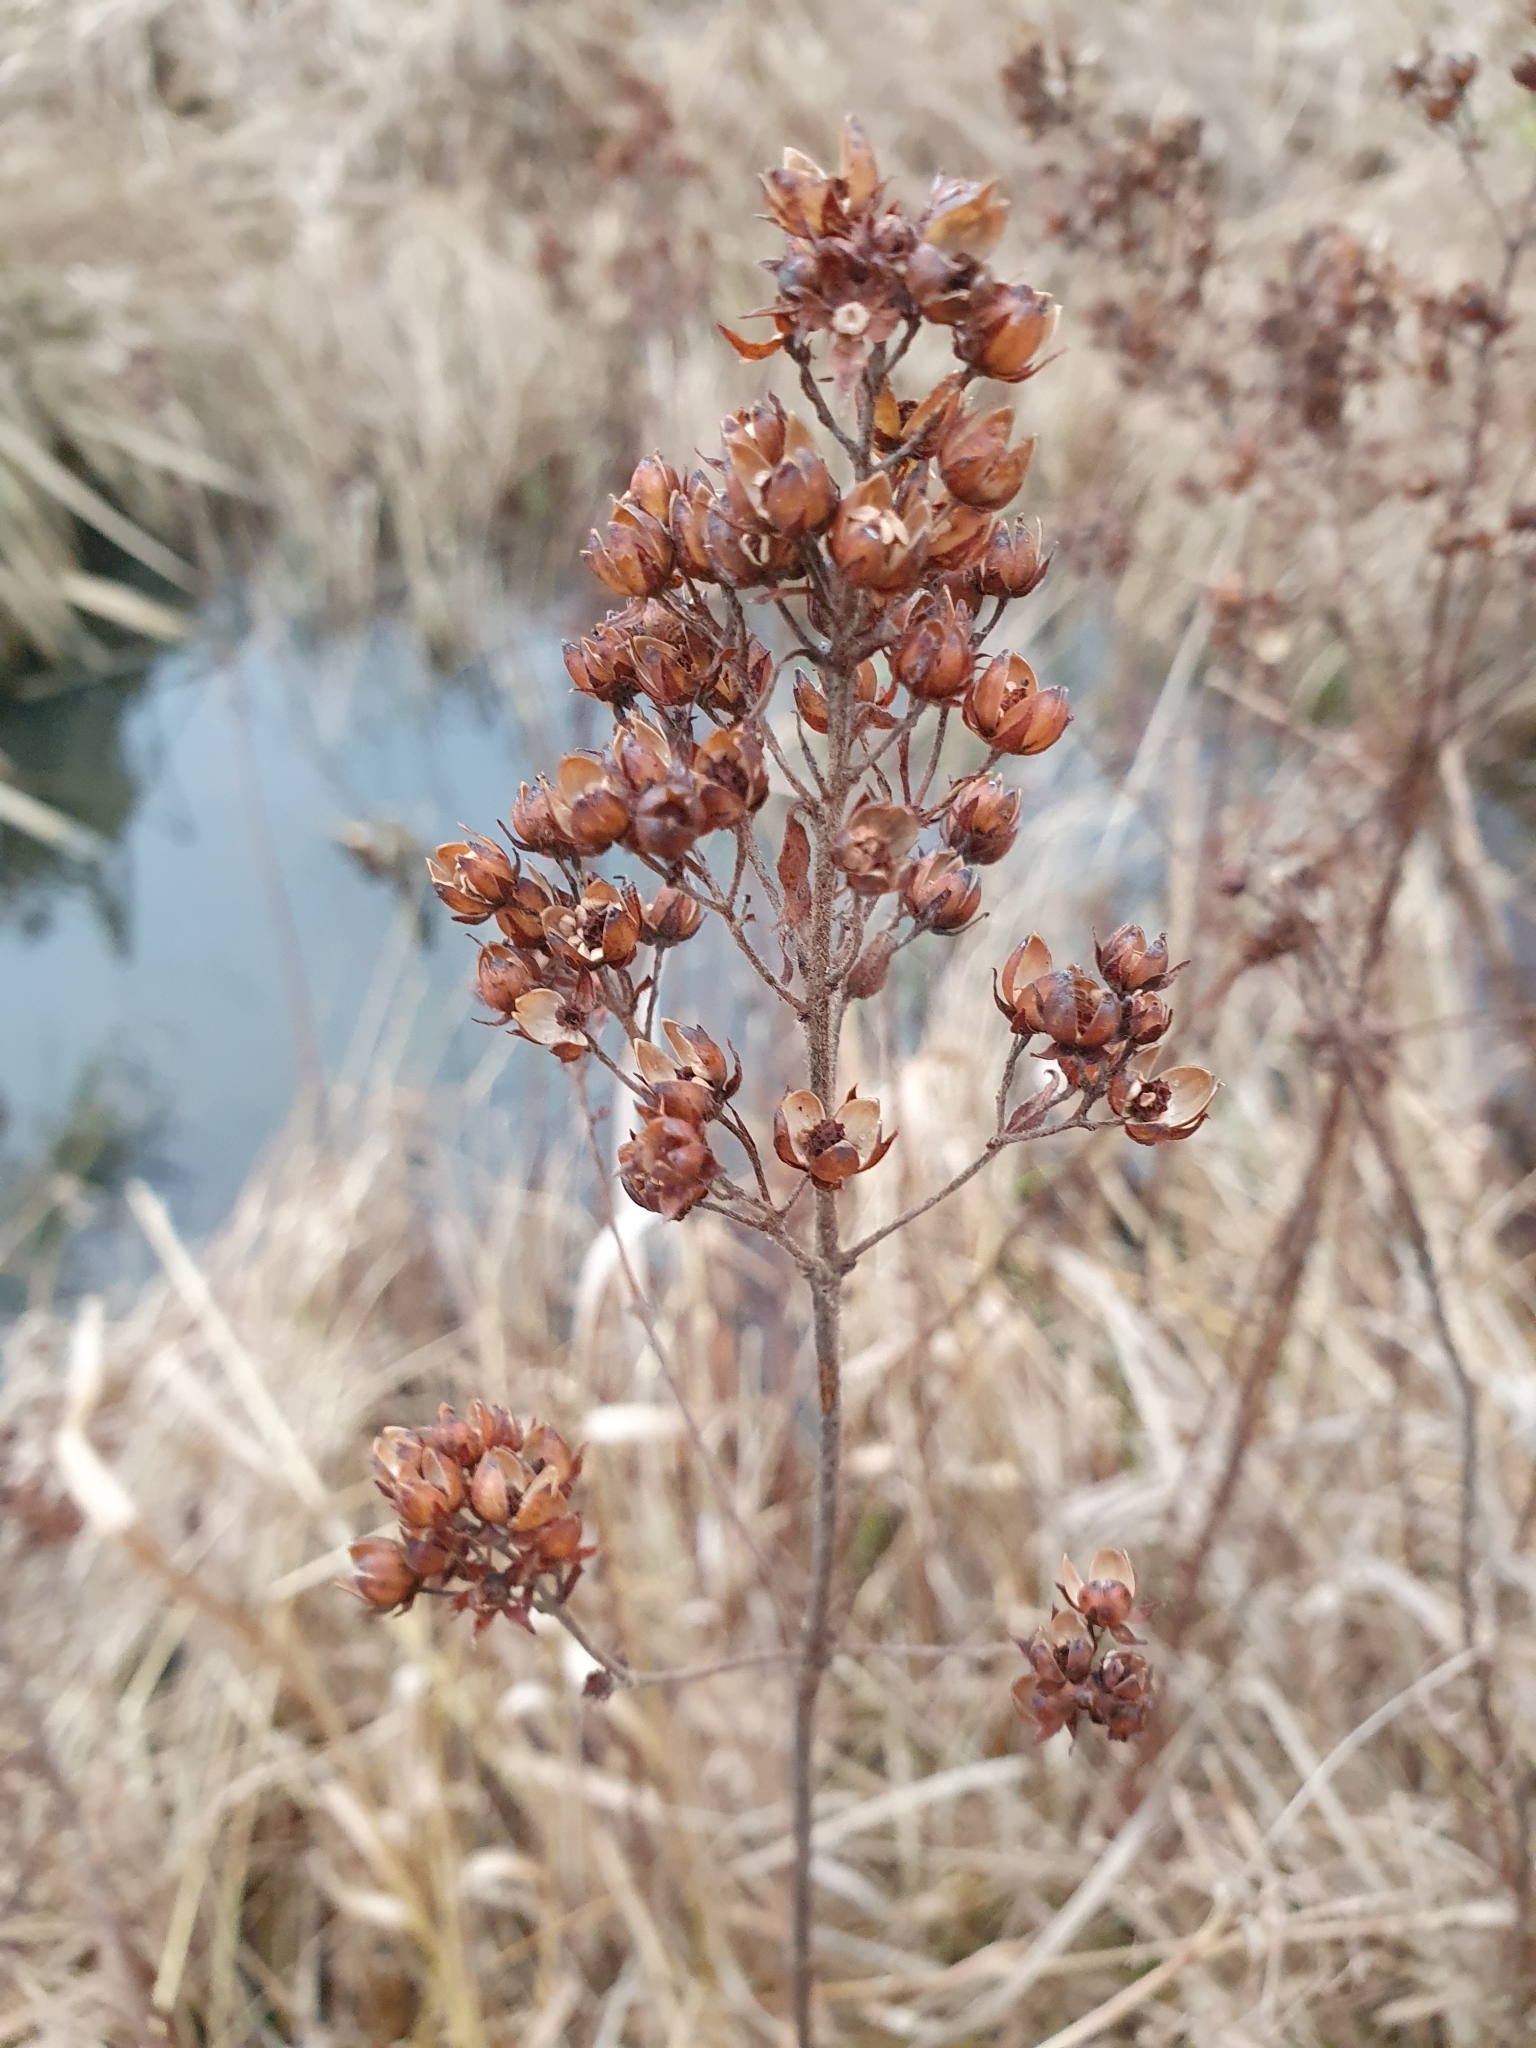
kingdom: Plantae
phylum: Tracheophyta
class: Magnoliopsida
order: Ericales
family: Primulaceae
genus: Lysimachia
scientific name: Lysimachia vulgaris
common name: Yellow loosestrife
